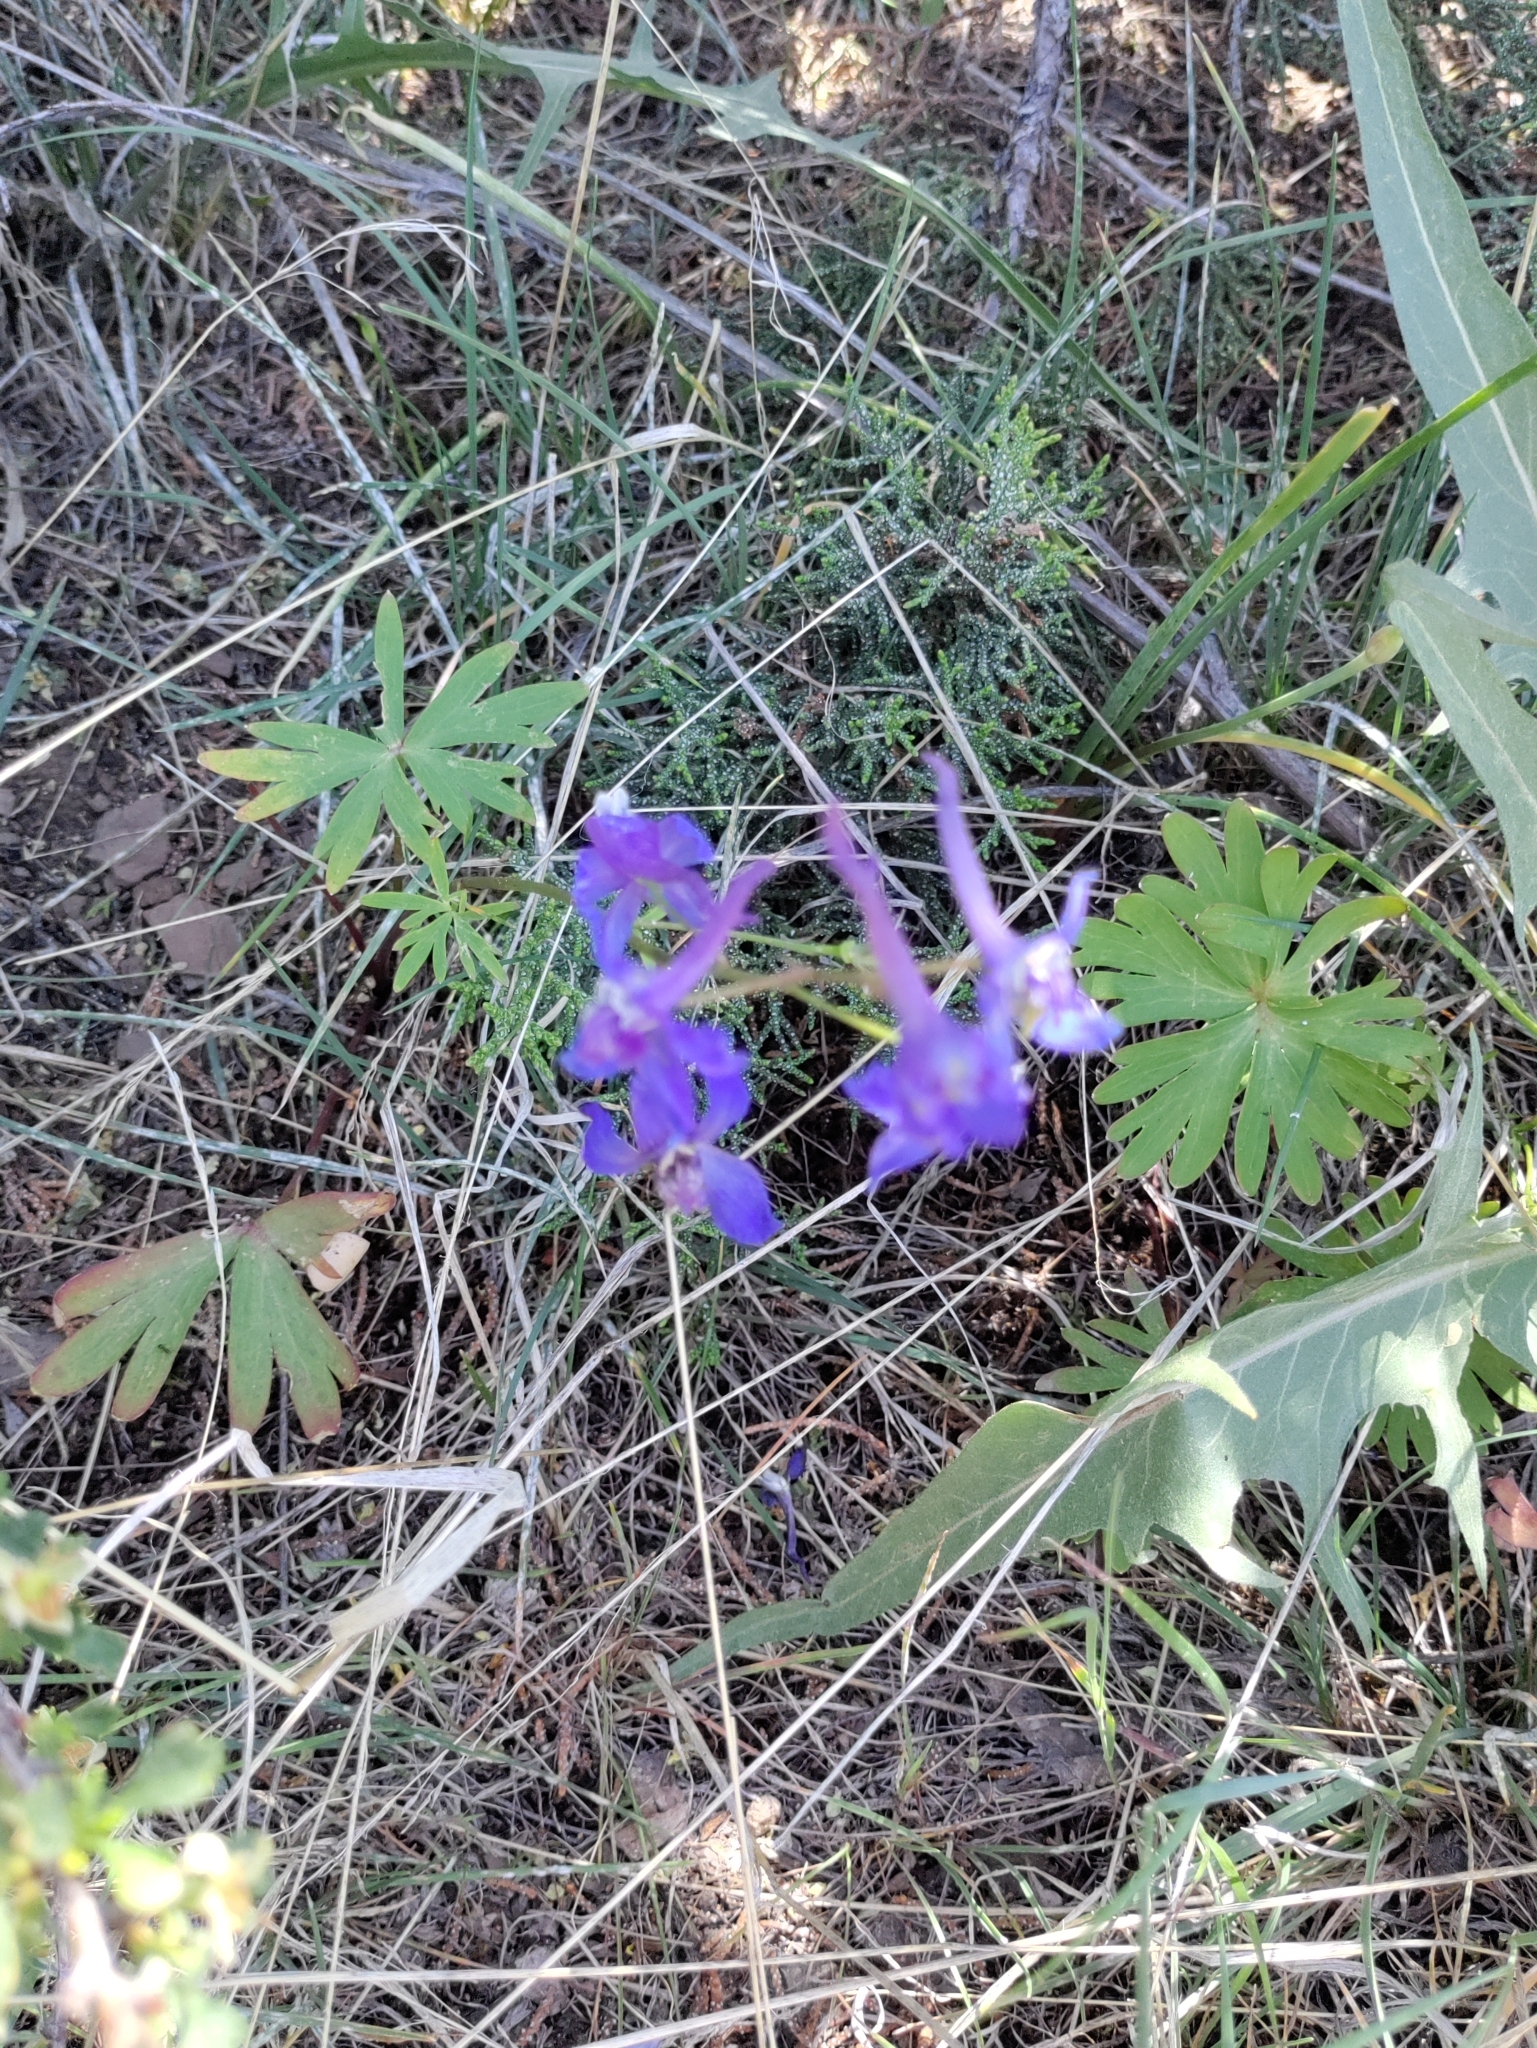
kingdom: Plantae
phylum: Tracheophyta
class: Magnoliopsida
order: Ranunculales
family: Ranunculaceae
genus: Delphinium
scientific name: Delphinium nuttallianum
